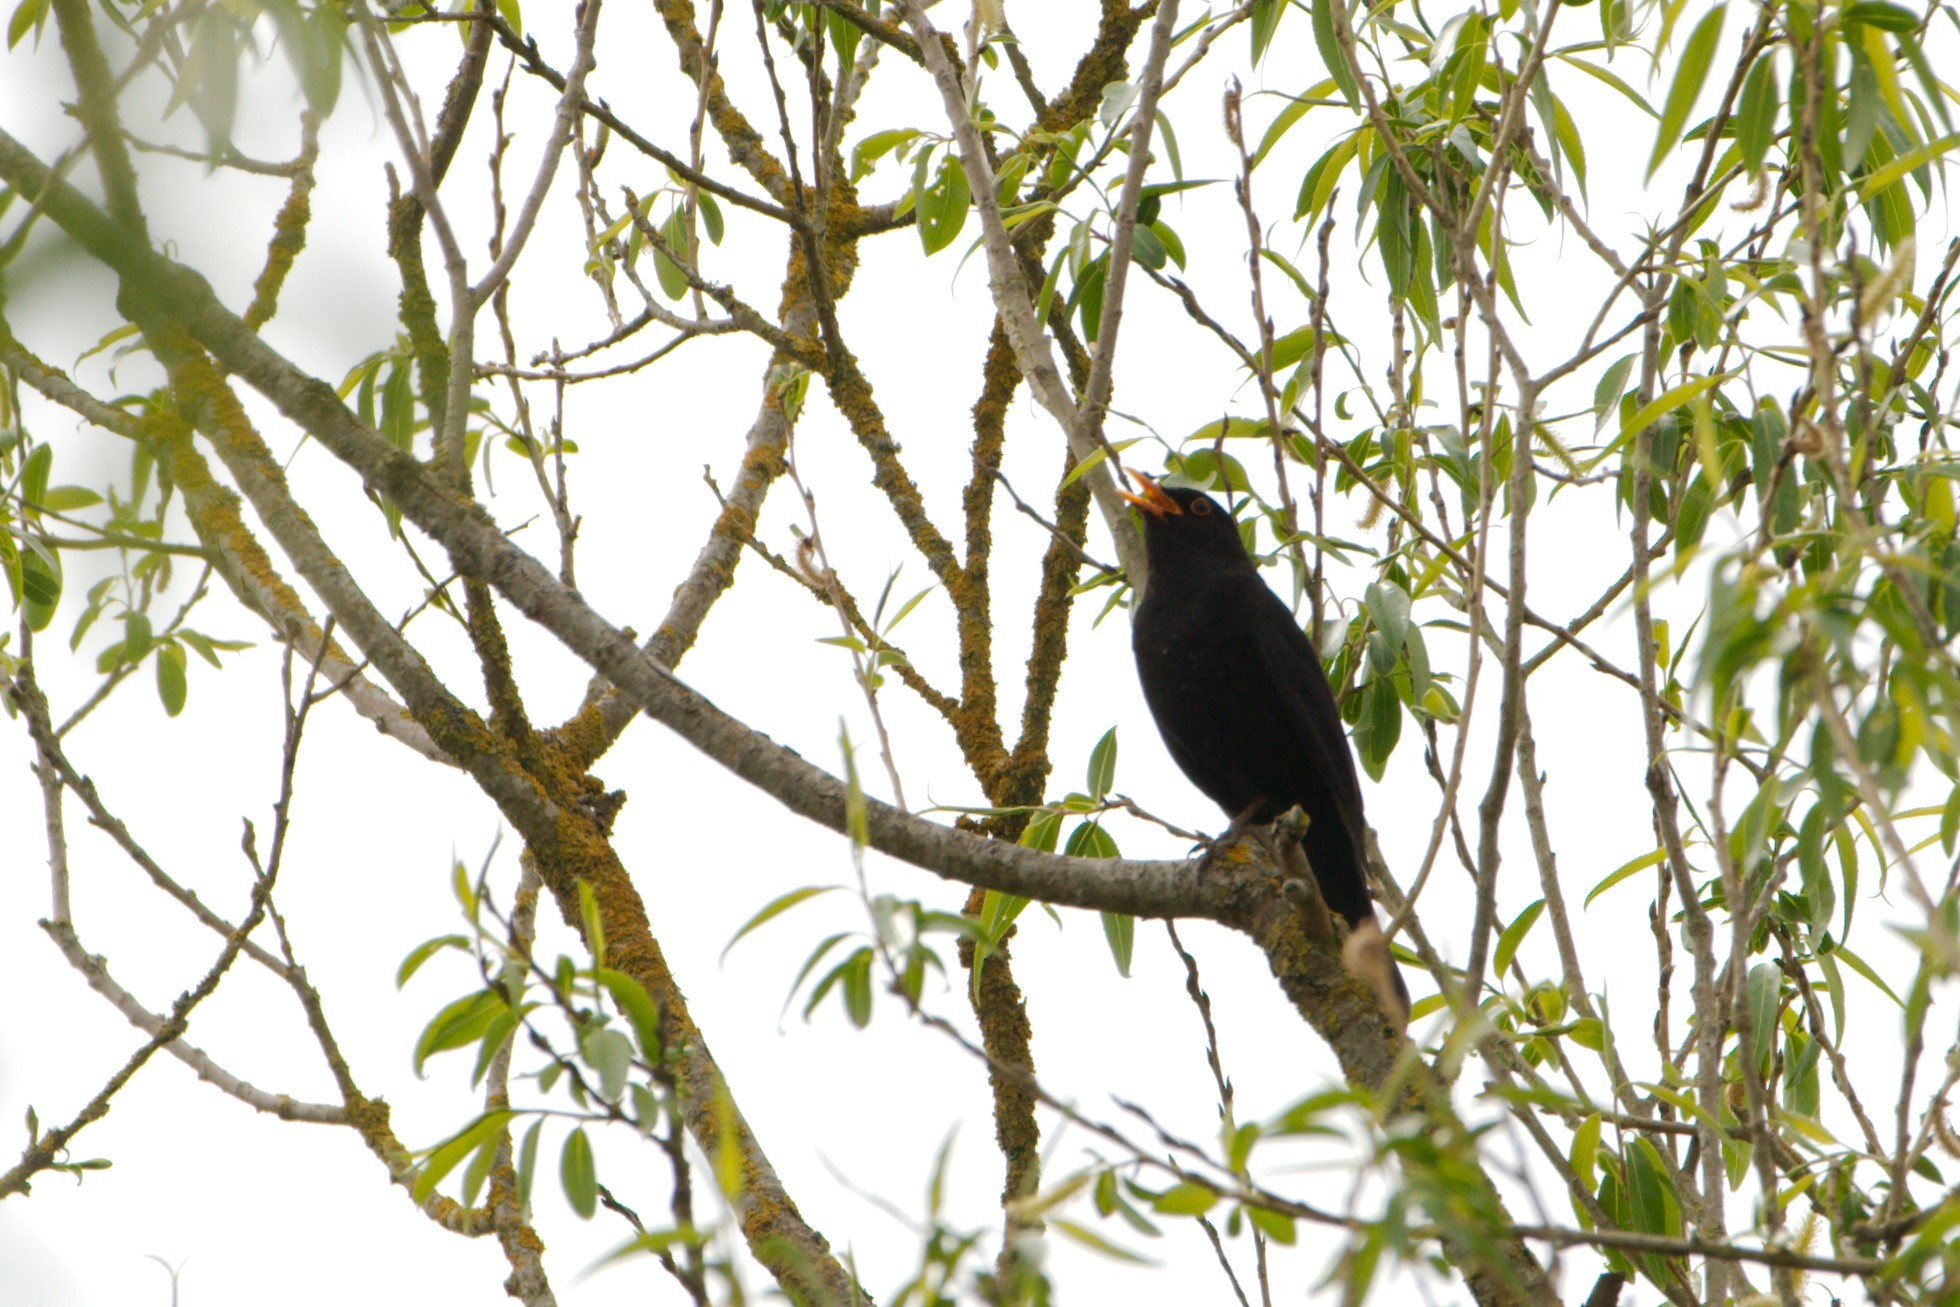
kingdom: Animalia
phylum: Chordata
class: Aves
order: Passeriformes
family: Turdidae
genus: Turdus
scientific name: Turdus merula
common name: Common blackbird
